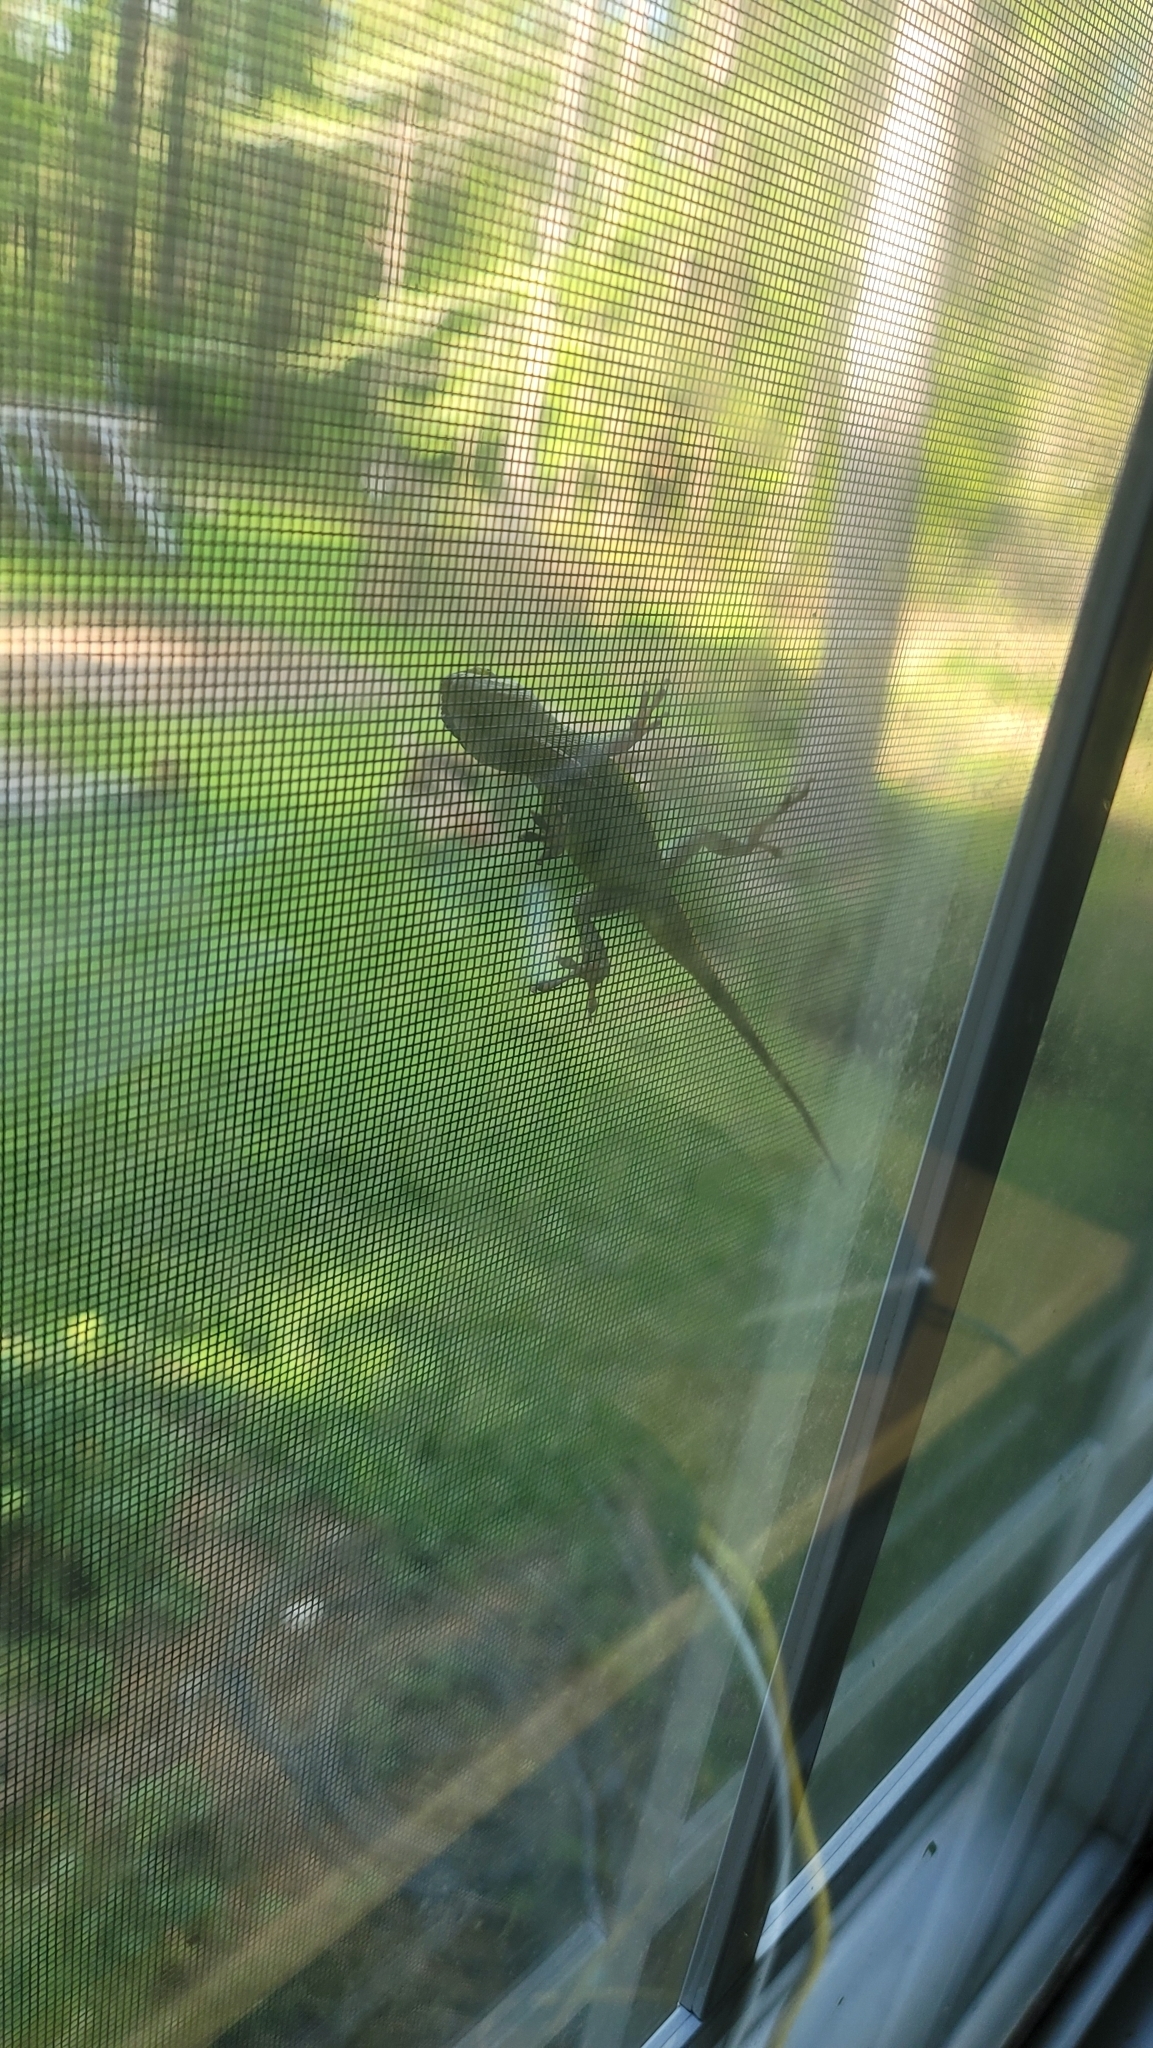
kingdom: Animalia
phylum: Chordata
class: Squamata
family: Dactyloidae
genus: Anolis
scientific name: Anolis carolinensis
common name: Green anole
